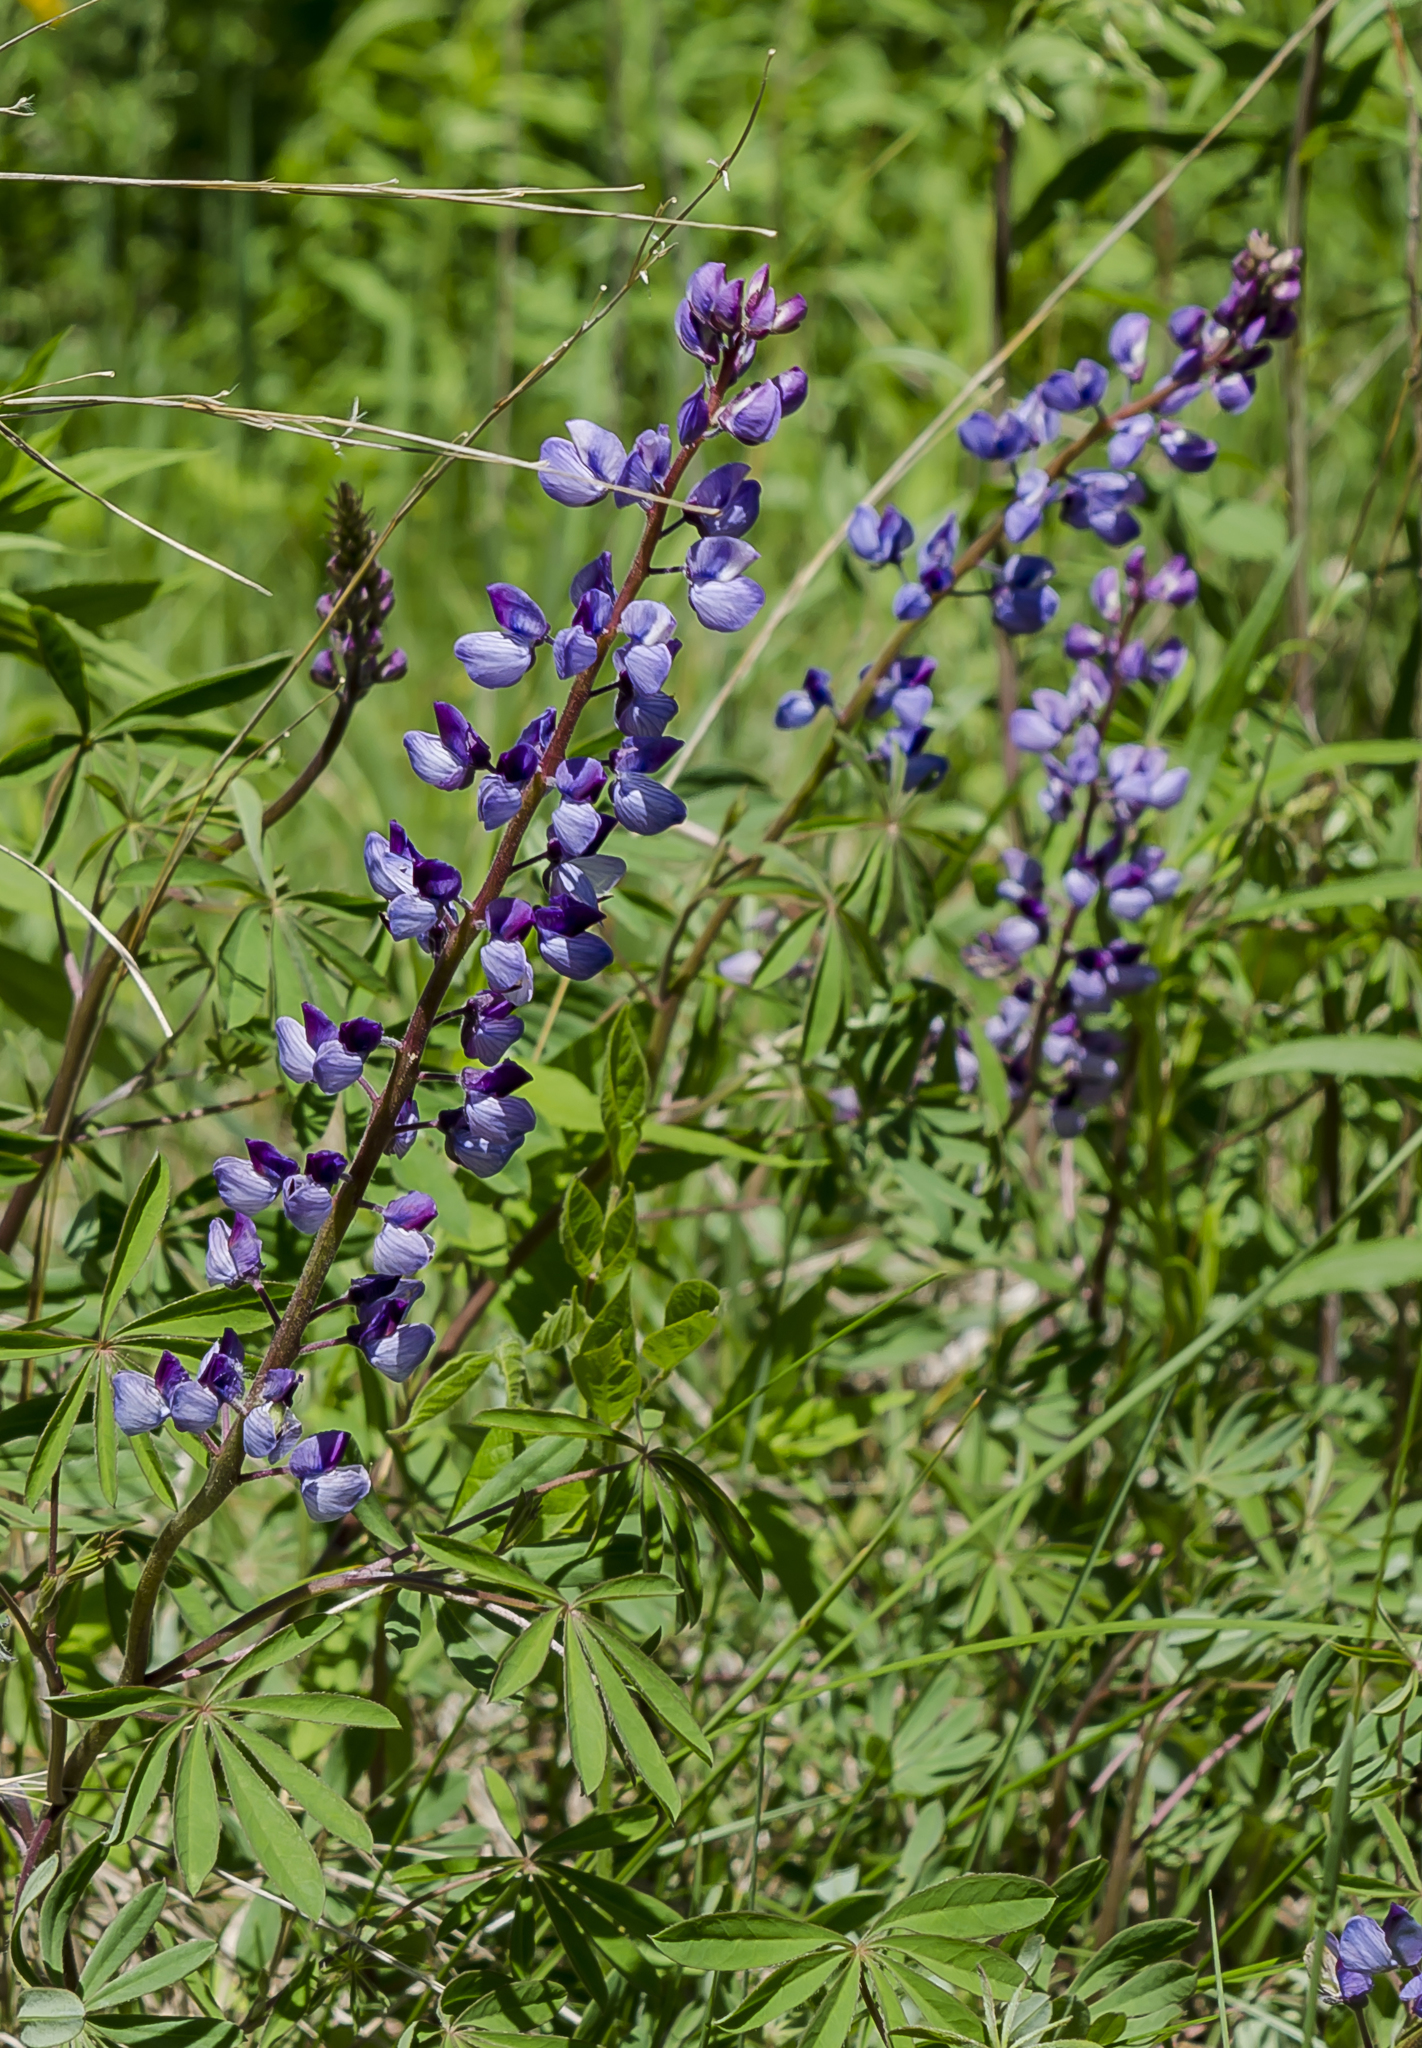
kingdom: Plantae
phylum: Tracheophyta
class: Magnoliopsida
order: Fabales
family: Fabaceae
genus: Lupinus
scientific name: Lupinus perennis
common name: Sundial lupine
